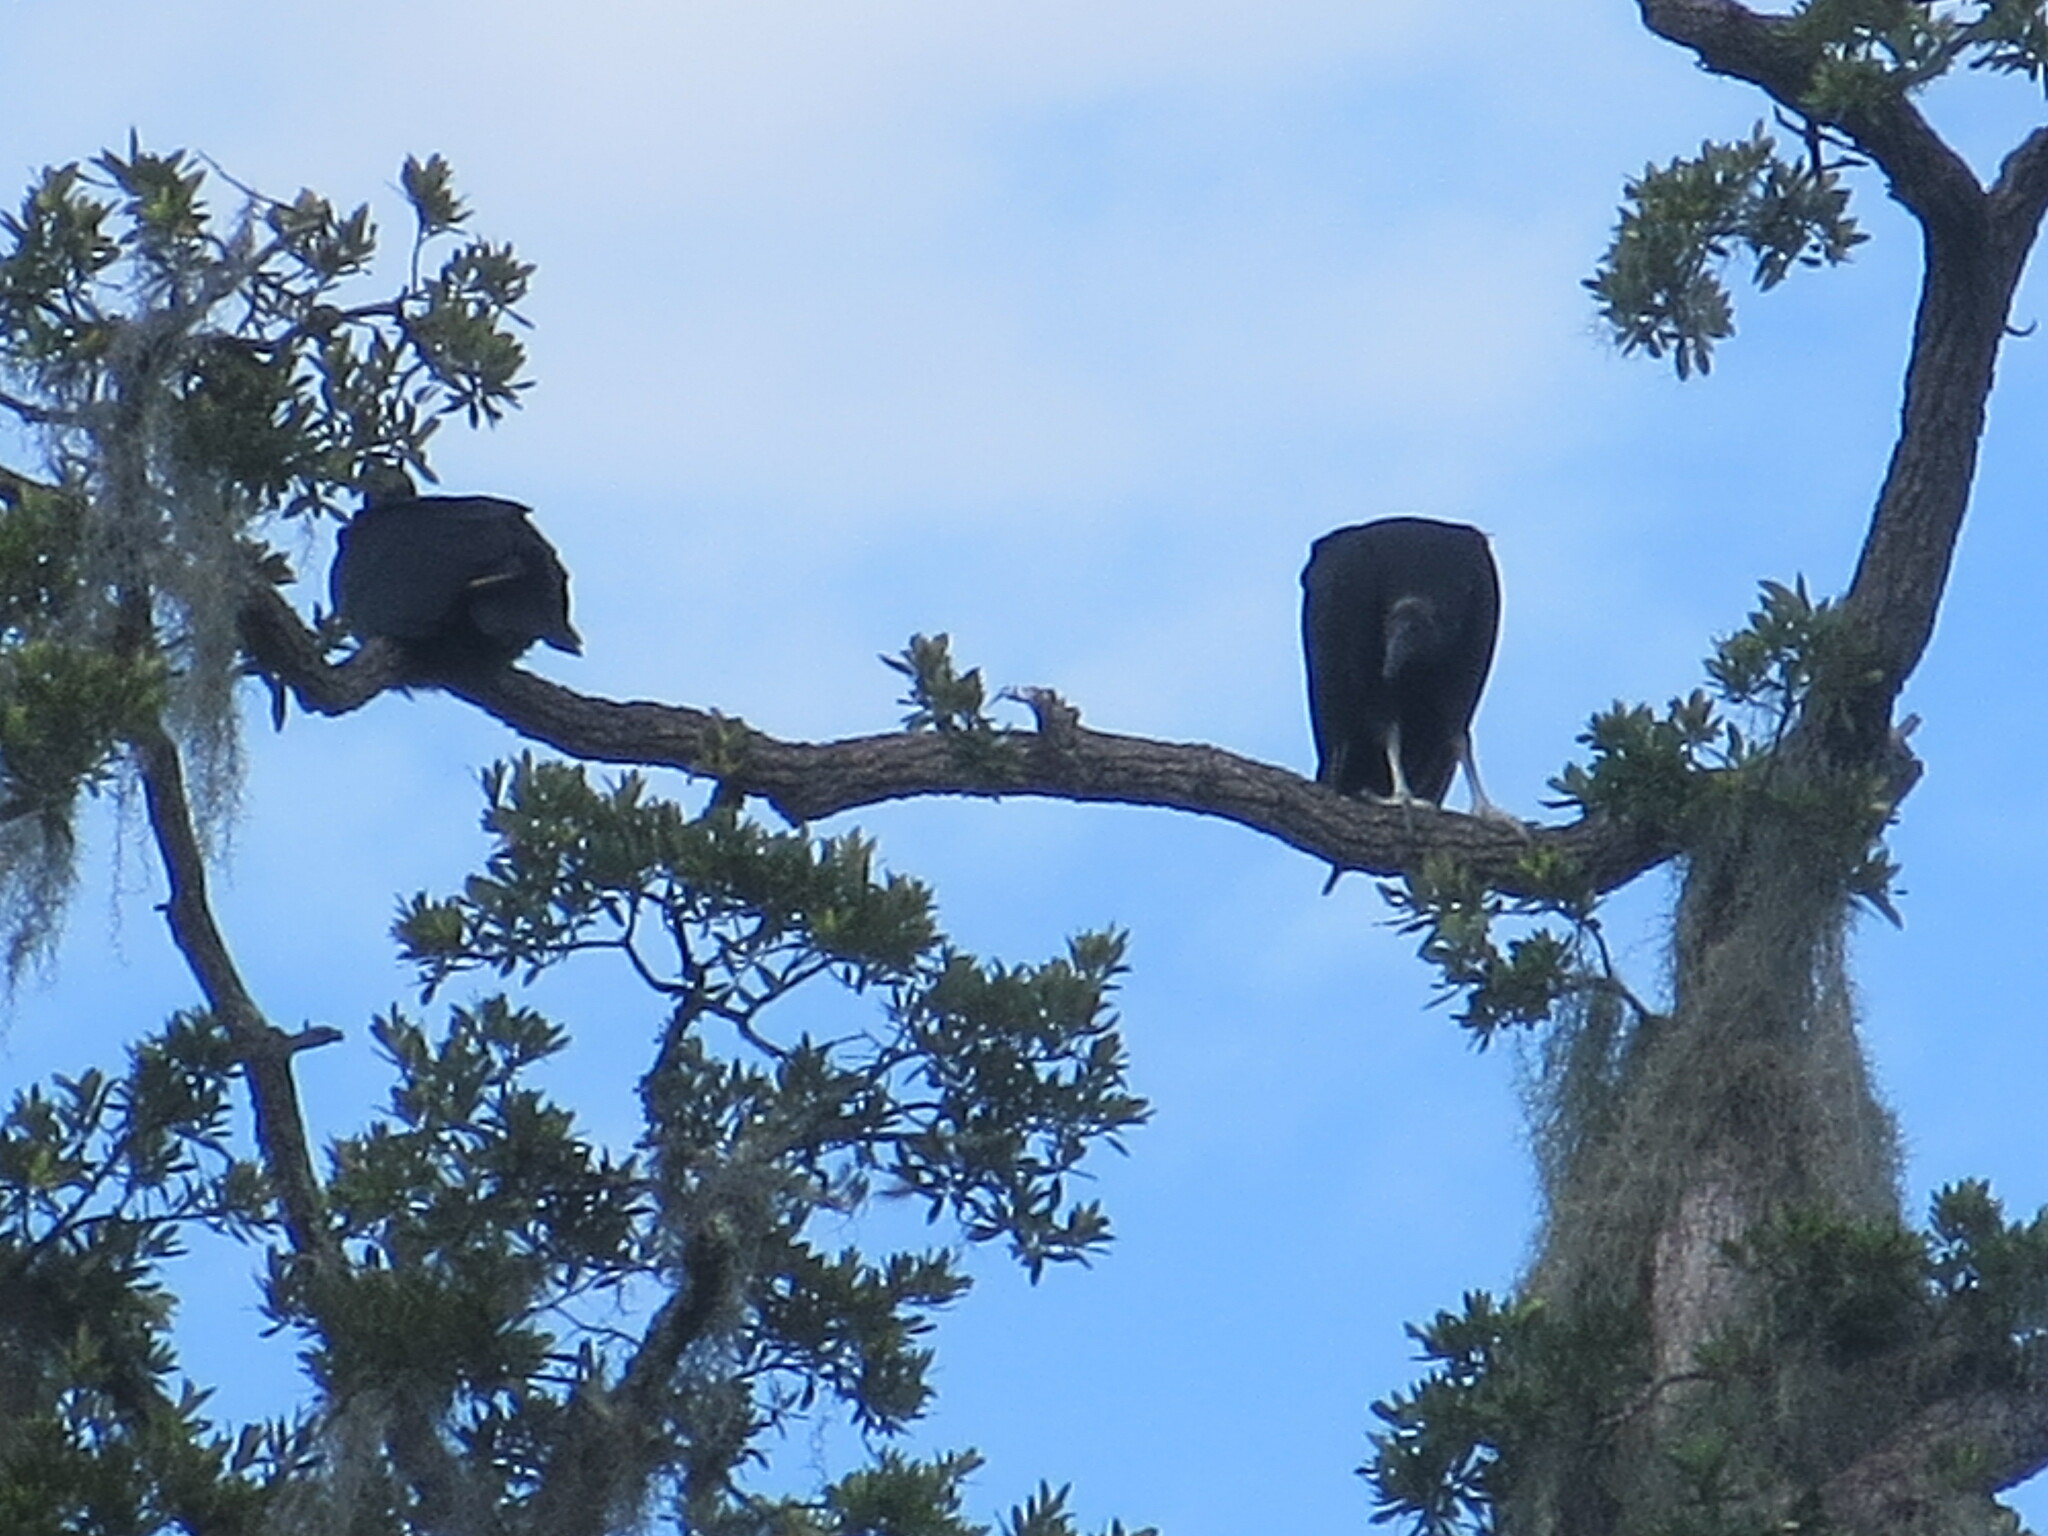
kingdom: Animalia
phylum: Chordata
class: Aves
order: Accipitriformes
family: Cathartidae
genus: Coragyps
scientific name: Coragyps atratus
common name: Black vulture
